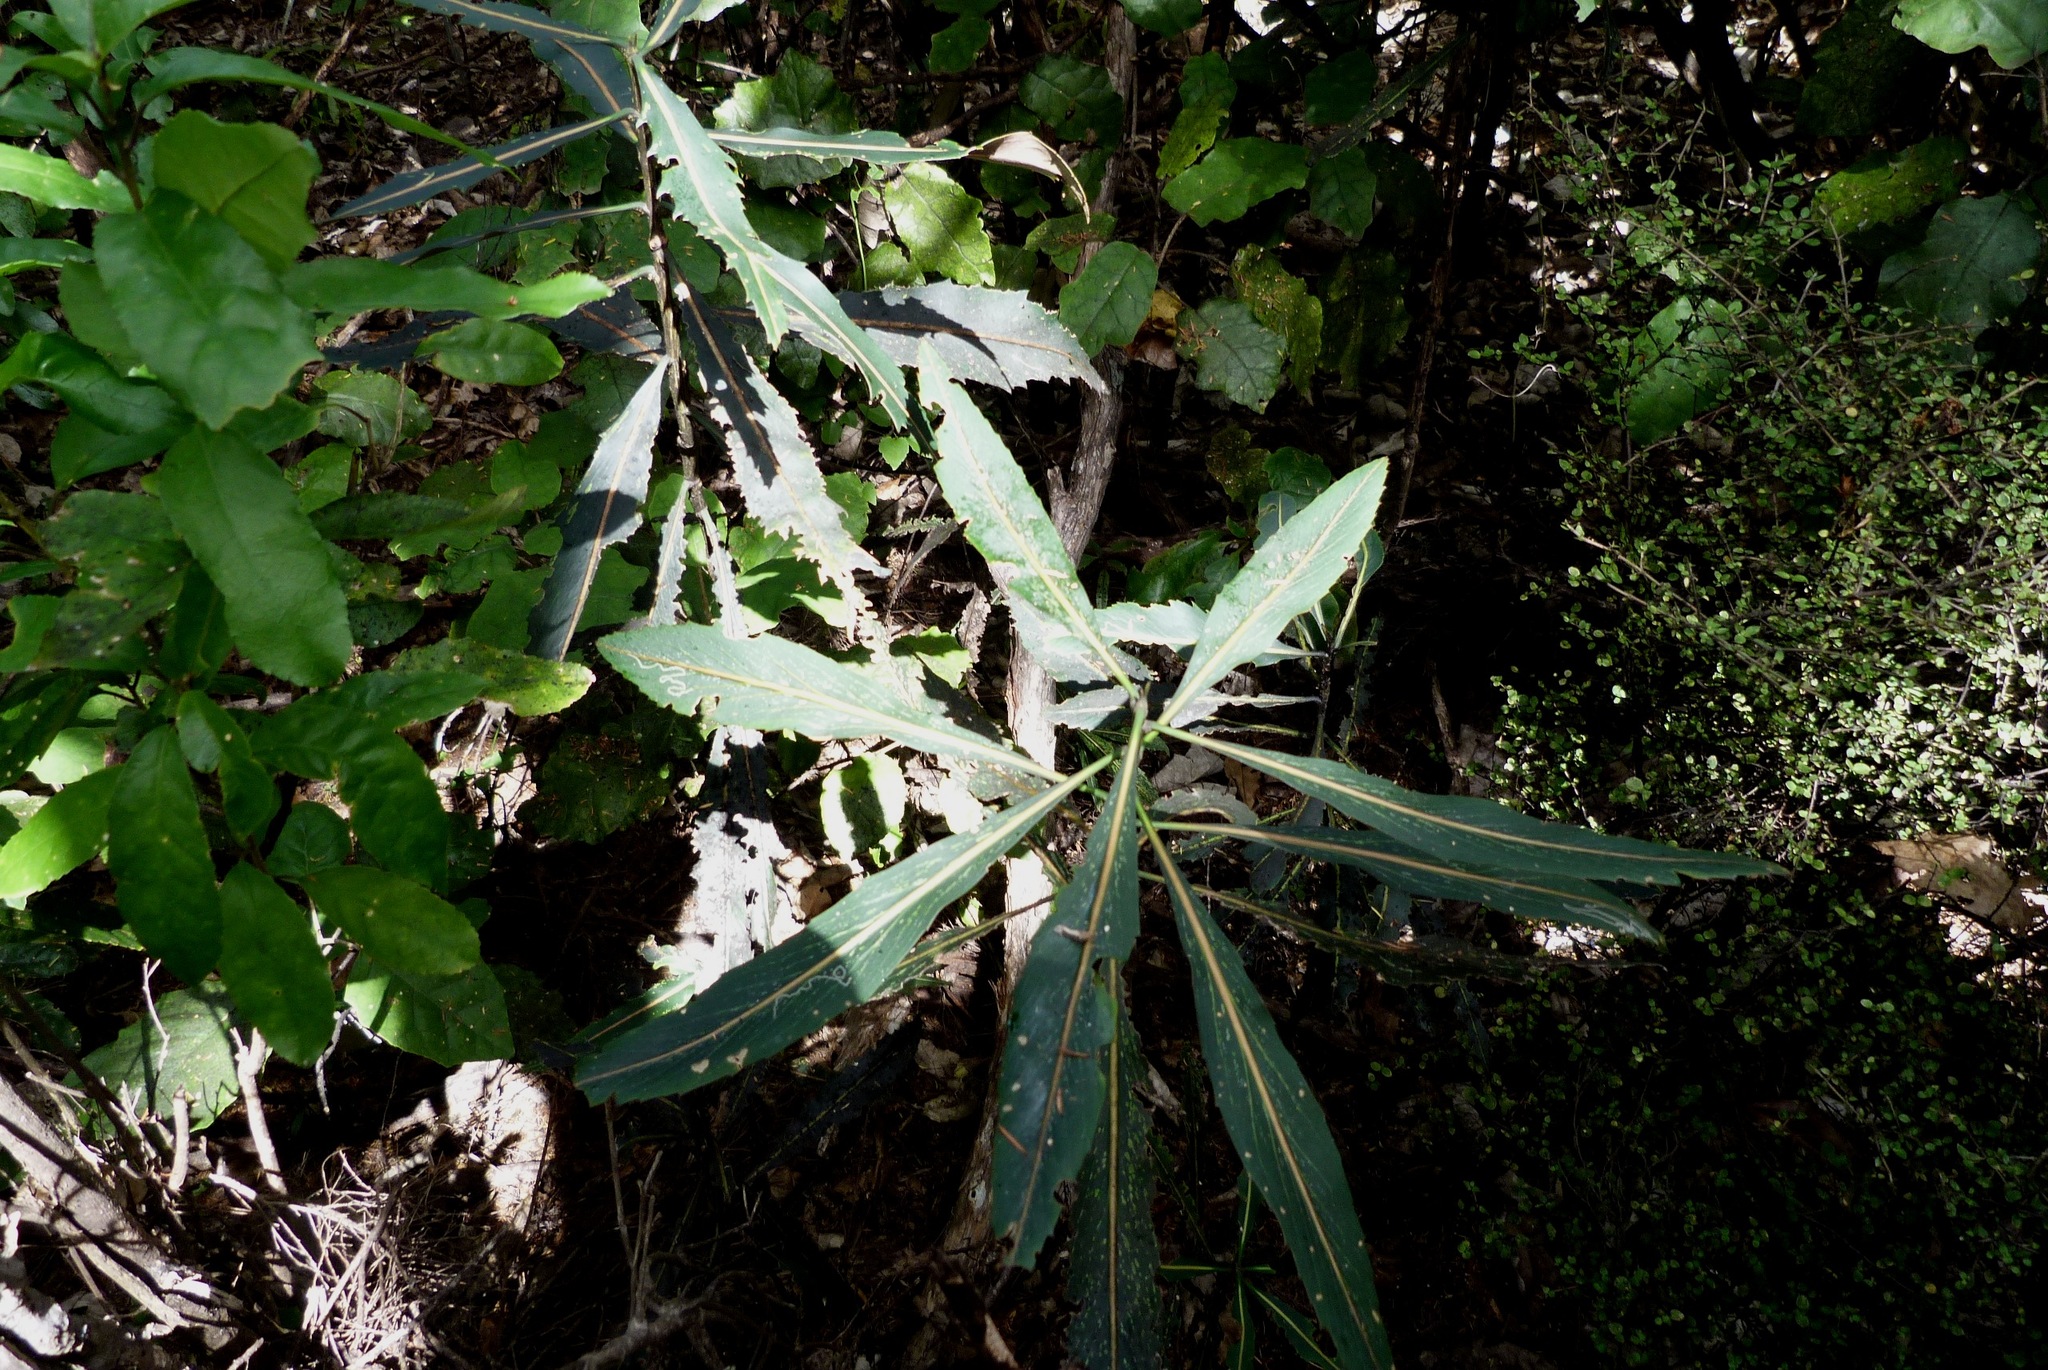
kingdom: Plantae
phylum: Tracheophyta
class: Magnoliopsida
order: Apiales
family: Araliaceae
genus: Pseudopanax
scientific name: Pseudopanax crassifolius
